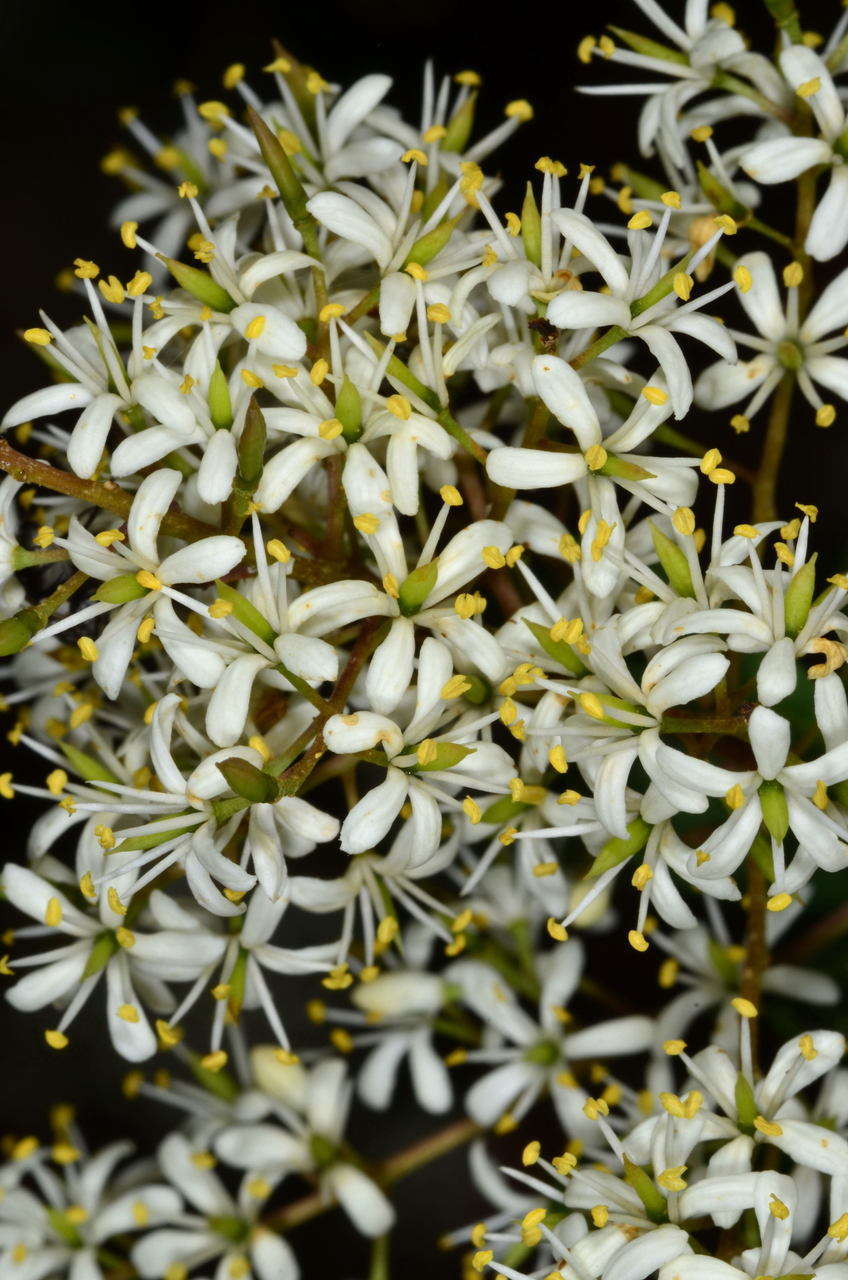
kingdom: Plantae
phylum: Tracheophyta
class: Magnoliopsida
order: Apiales
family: Pittosporaceae
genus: Bursaria
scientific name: Bursaria spinosa
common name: Australian blackthorn
